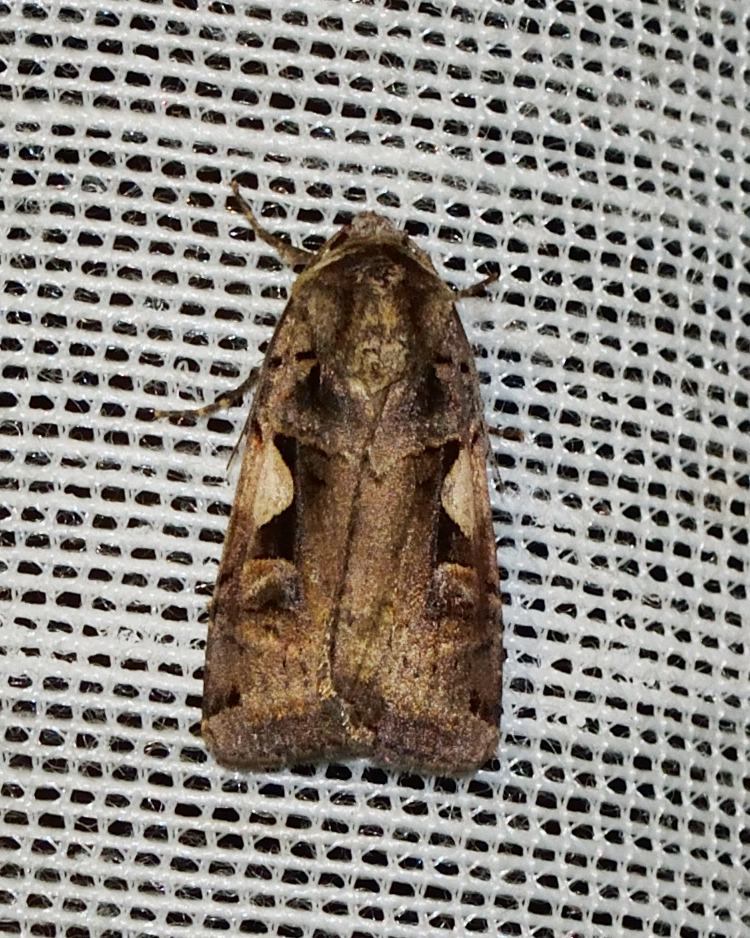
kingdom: Animalia
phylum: Arthropoda
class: Insecta
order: Lepidoptera
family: Noctuidae
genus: Xestia
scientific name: Xestia c-nigrum
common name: Setaceous hebrew character
